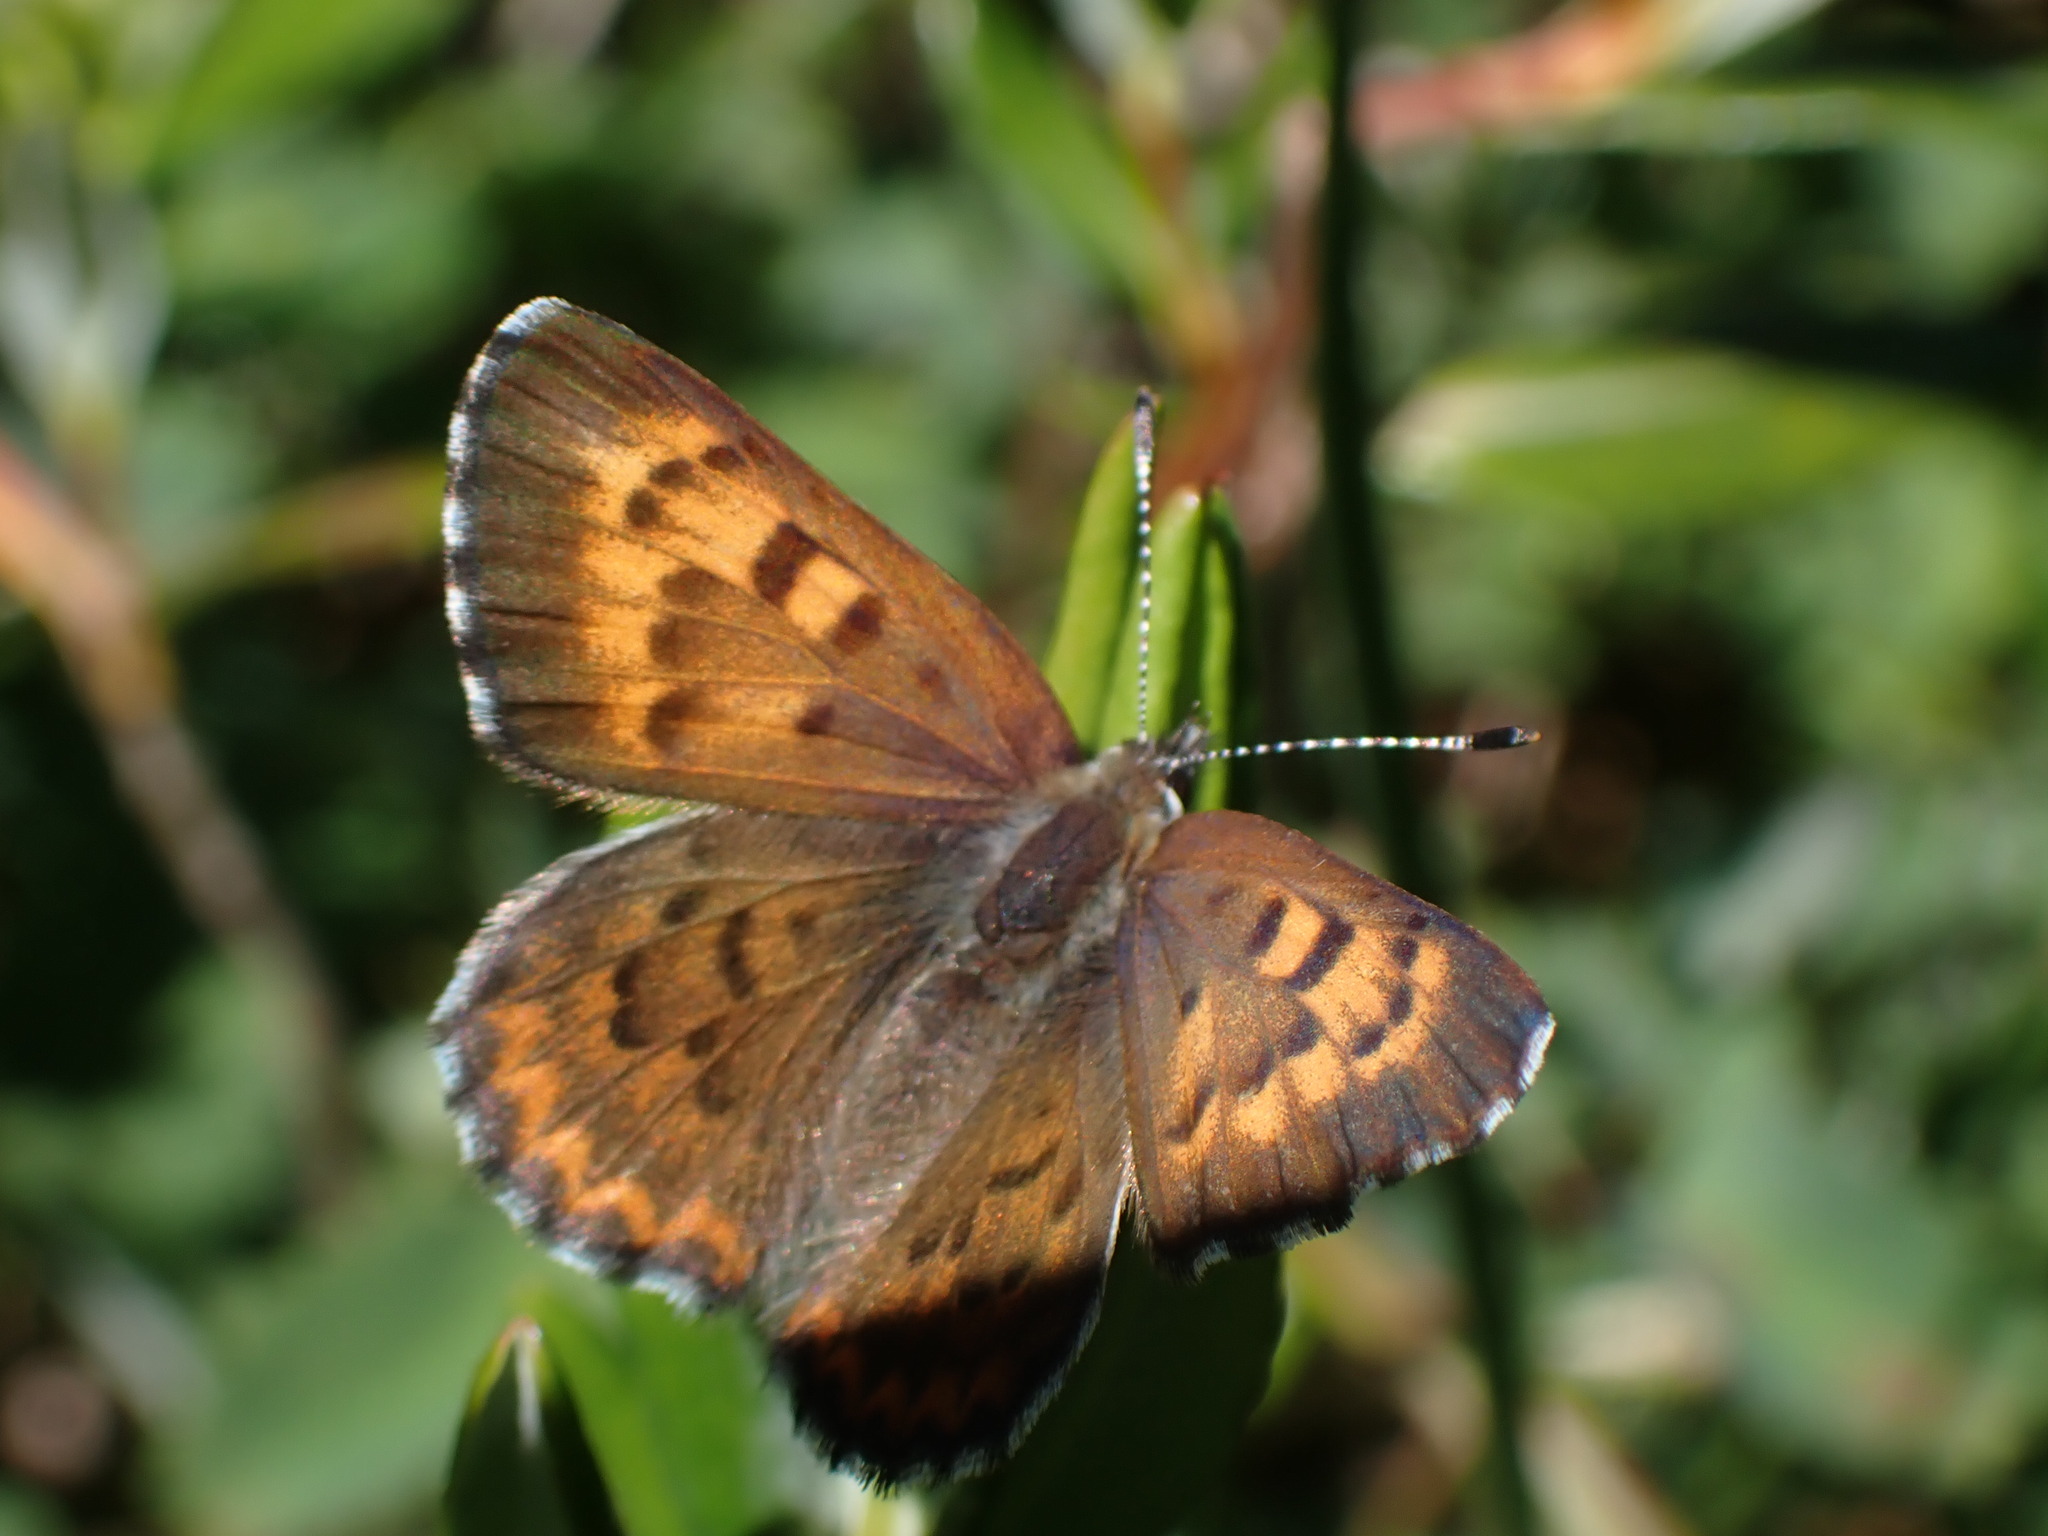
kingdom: Animalia
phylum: Arthropoda
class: Insecta
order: Lepidoptera
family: Lycaenidae
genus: Tharsalea
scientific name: Tharsalea mariposa
